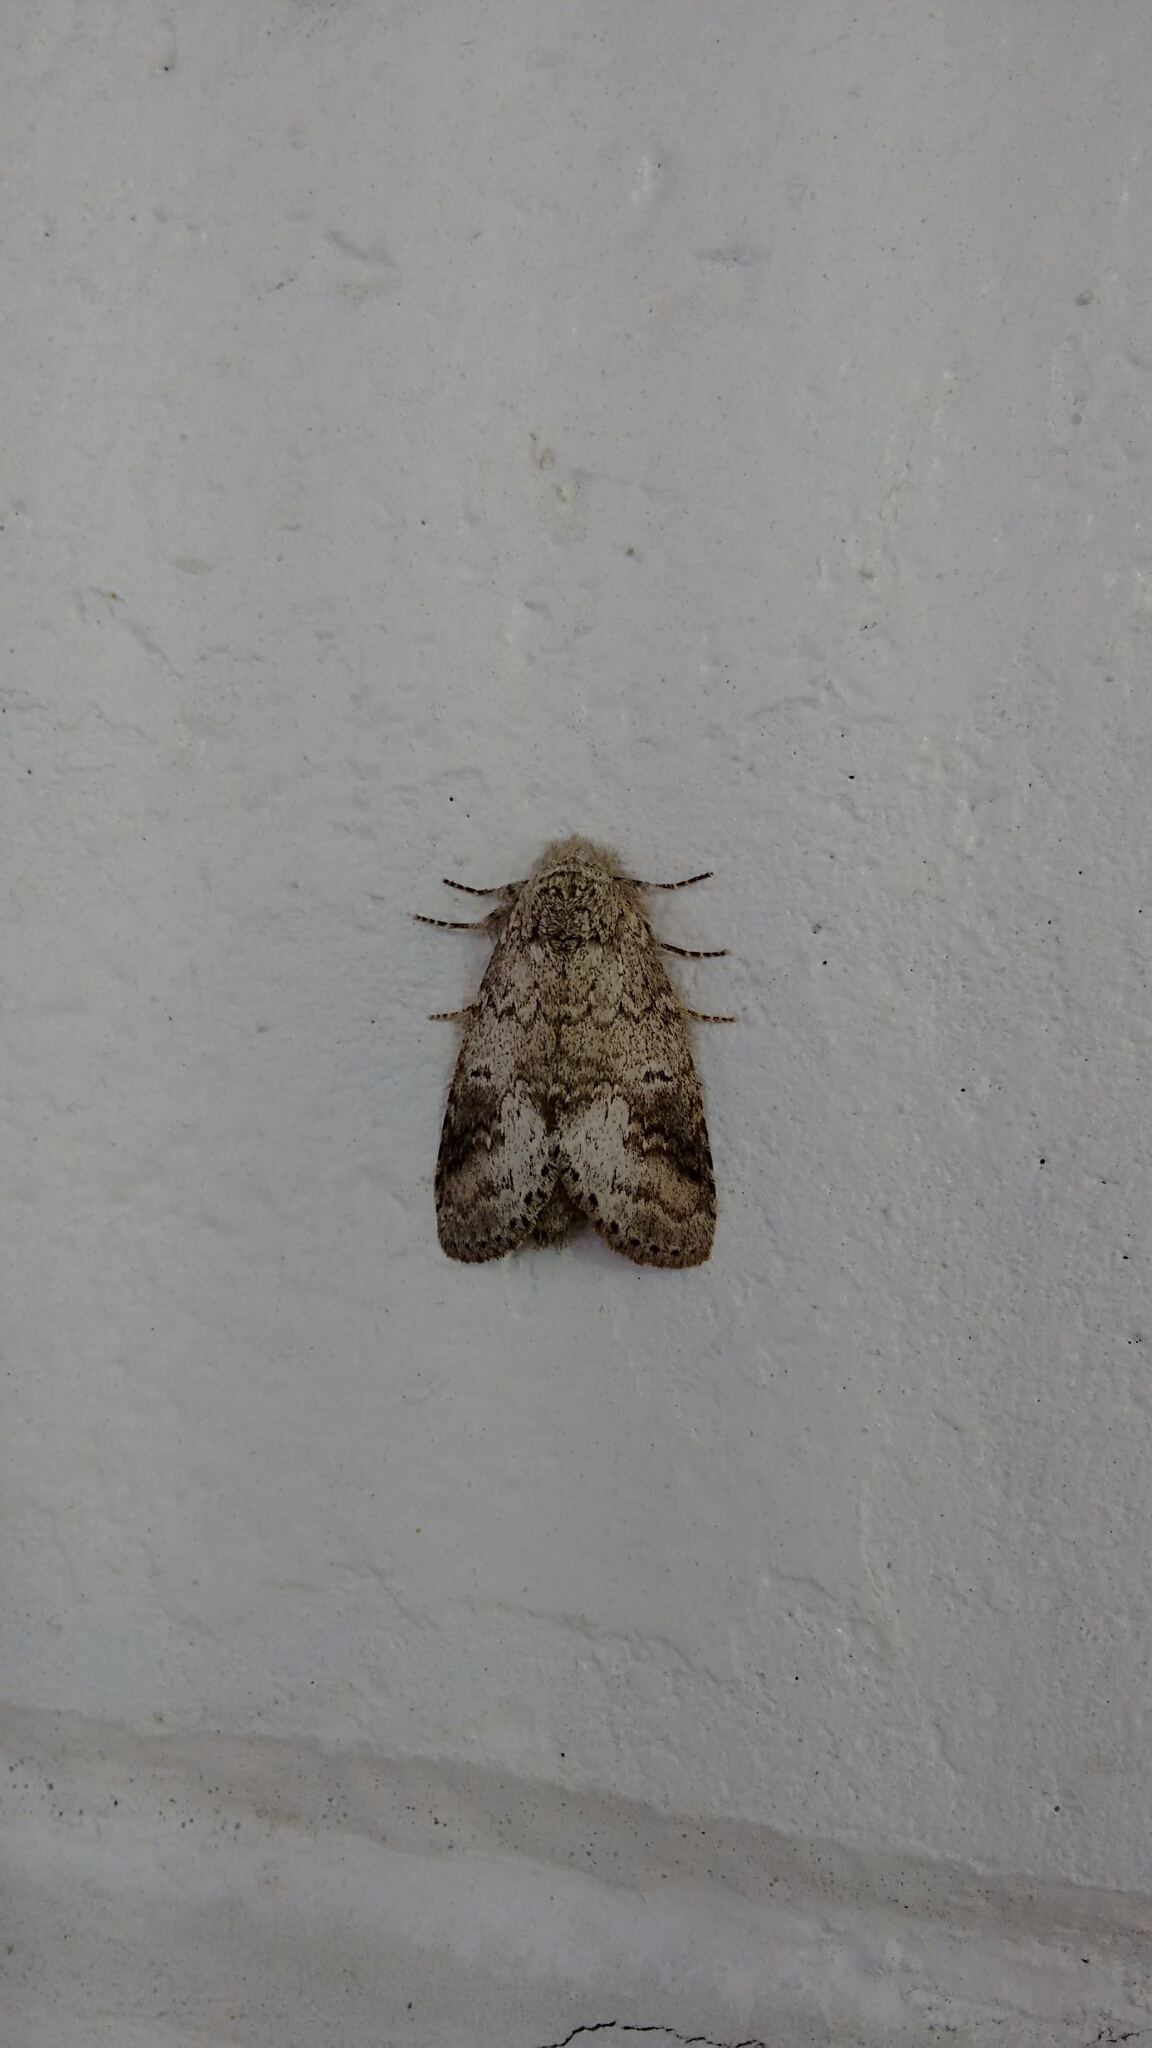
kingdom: Animalia
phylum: Arthropoda
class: Insecta
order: Lepidoptera
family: Notodontidae
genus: Lochmaeus
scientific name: Lochmaeus bilineata
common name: Double-lined prominent
